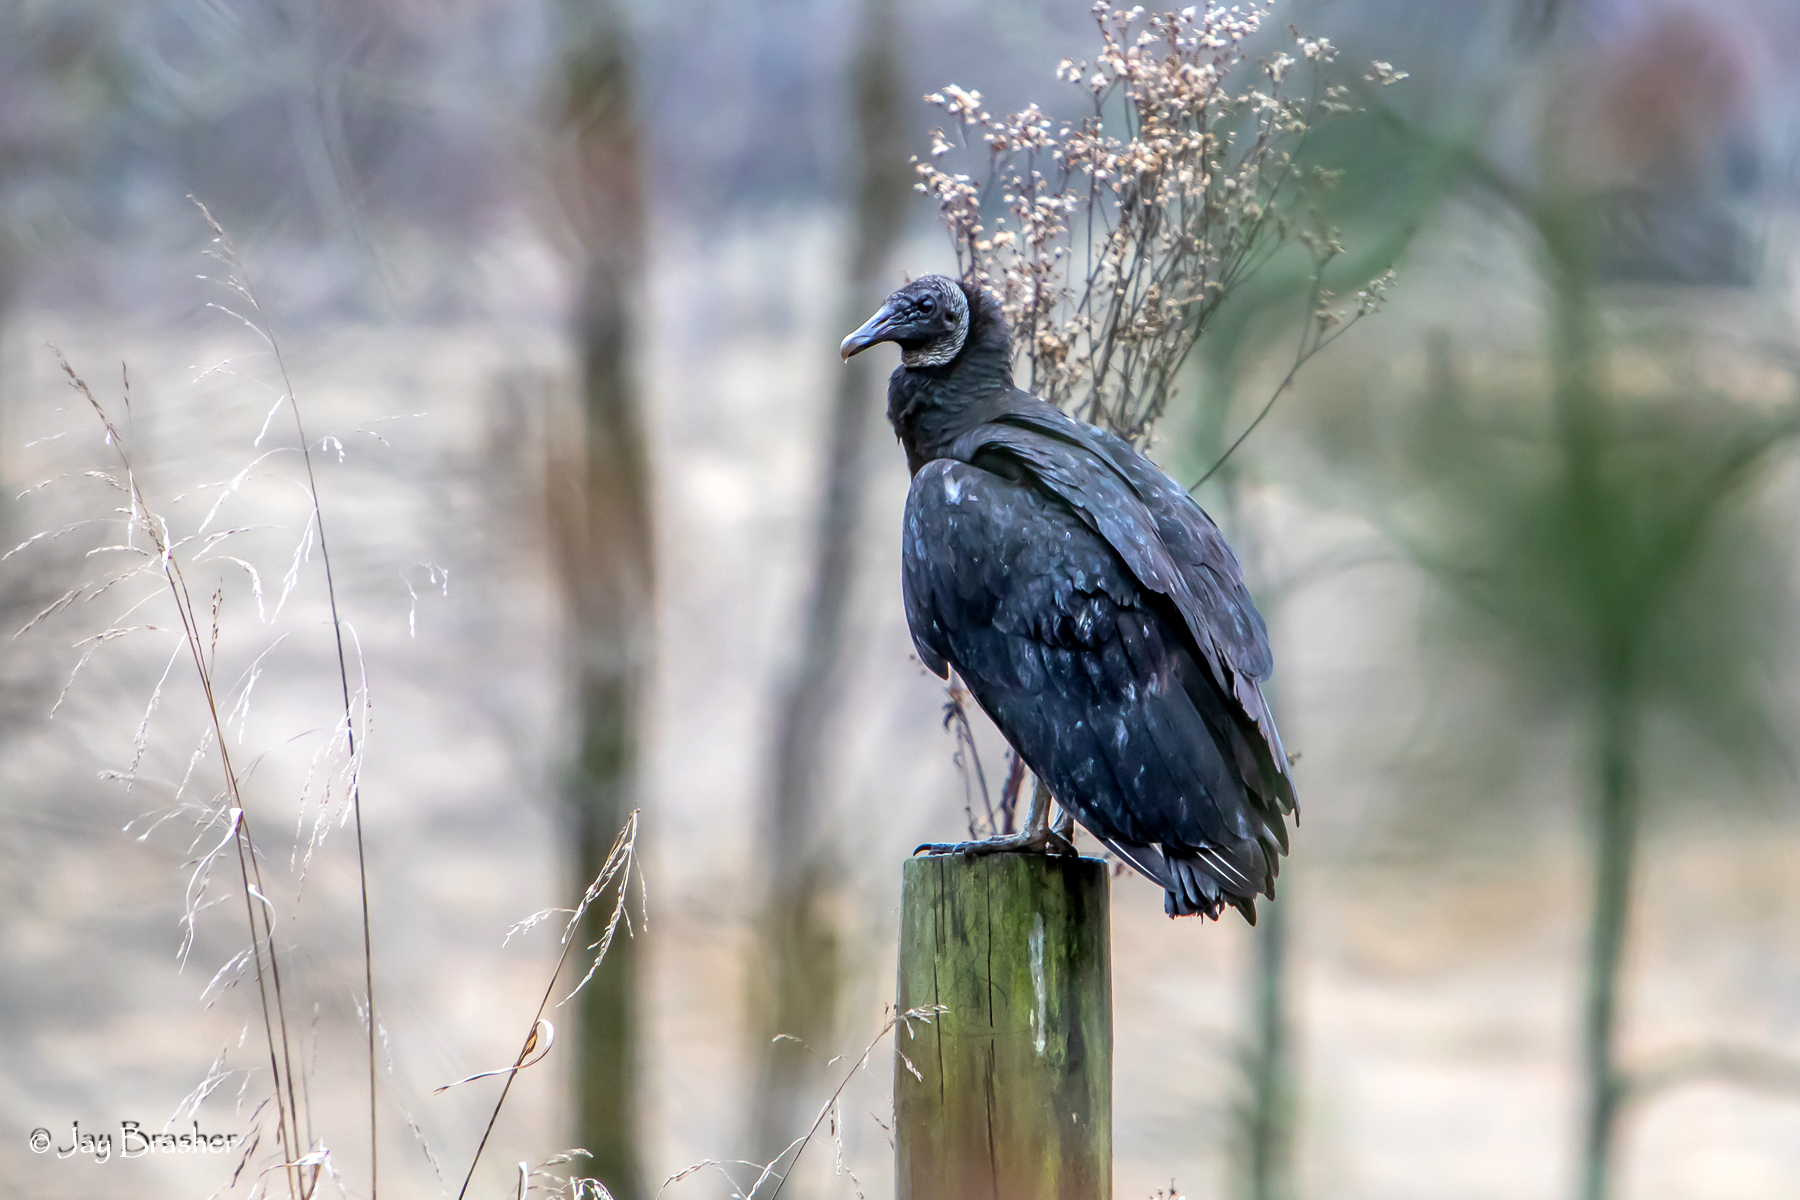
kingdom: Animalia
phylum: Chordata
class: Aves
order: Accipitriformes
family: Cathartidae
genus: Coragyps
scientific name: Coragyps atratus
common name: Black vulture
